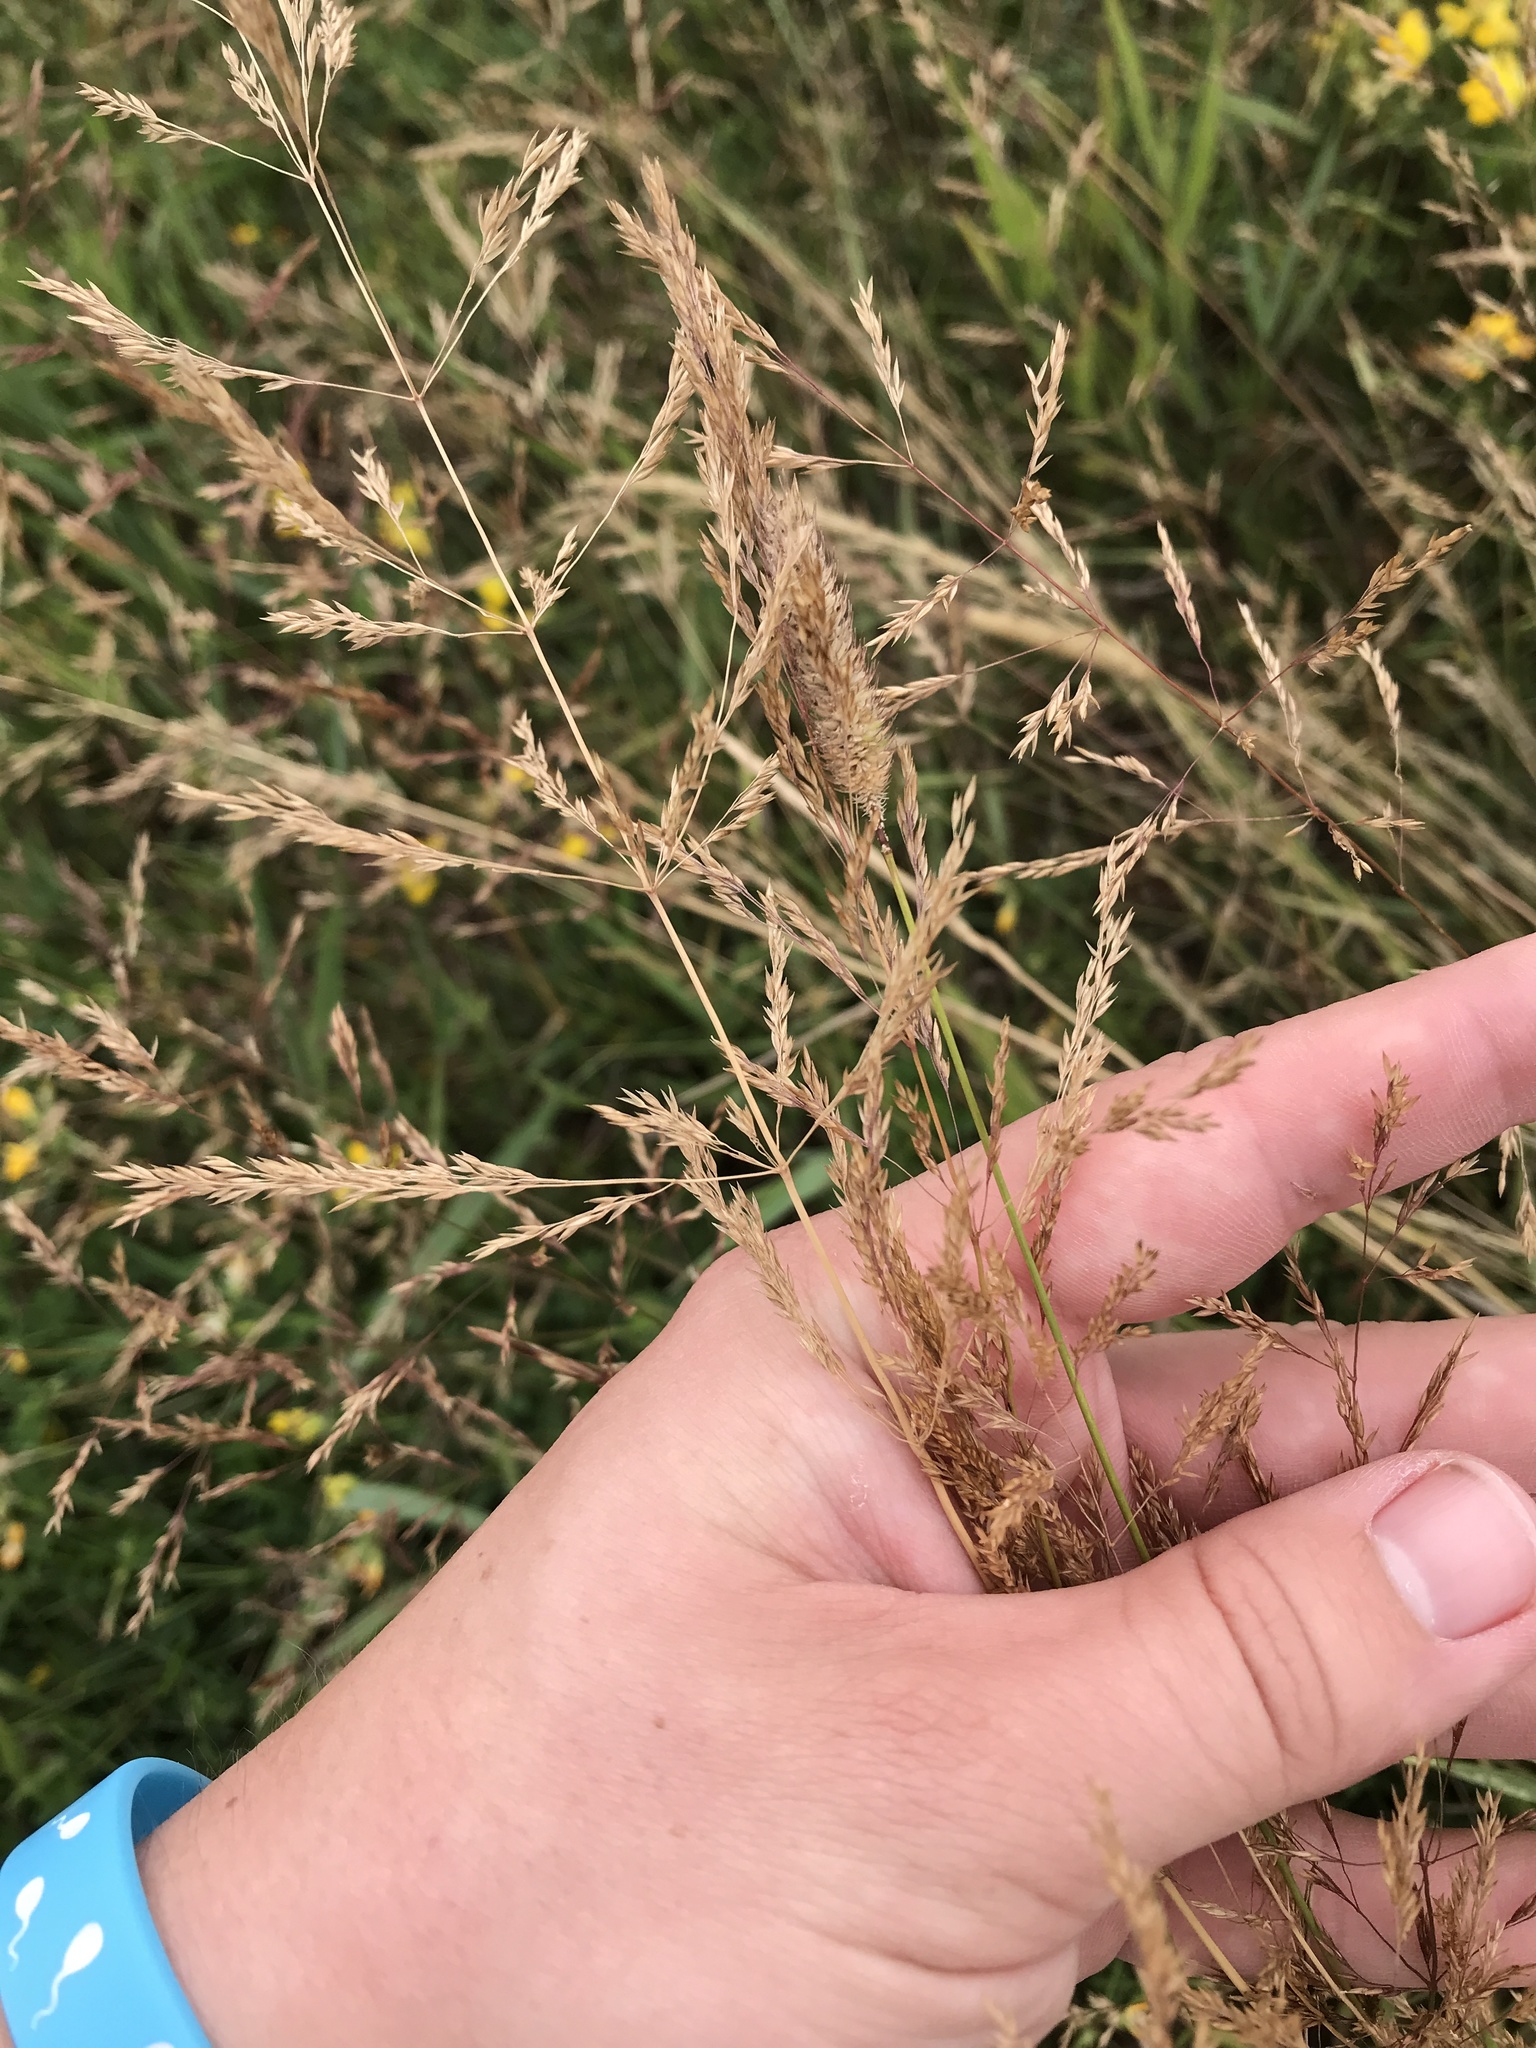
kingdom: Plantae
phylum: Tracheophyta
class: Liliopsida
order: Poales
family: Poaceae
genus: Agrostis
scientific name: Agrostis gigantea
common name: Black bent
